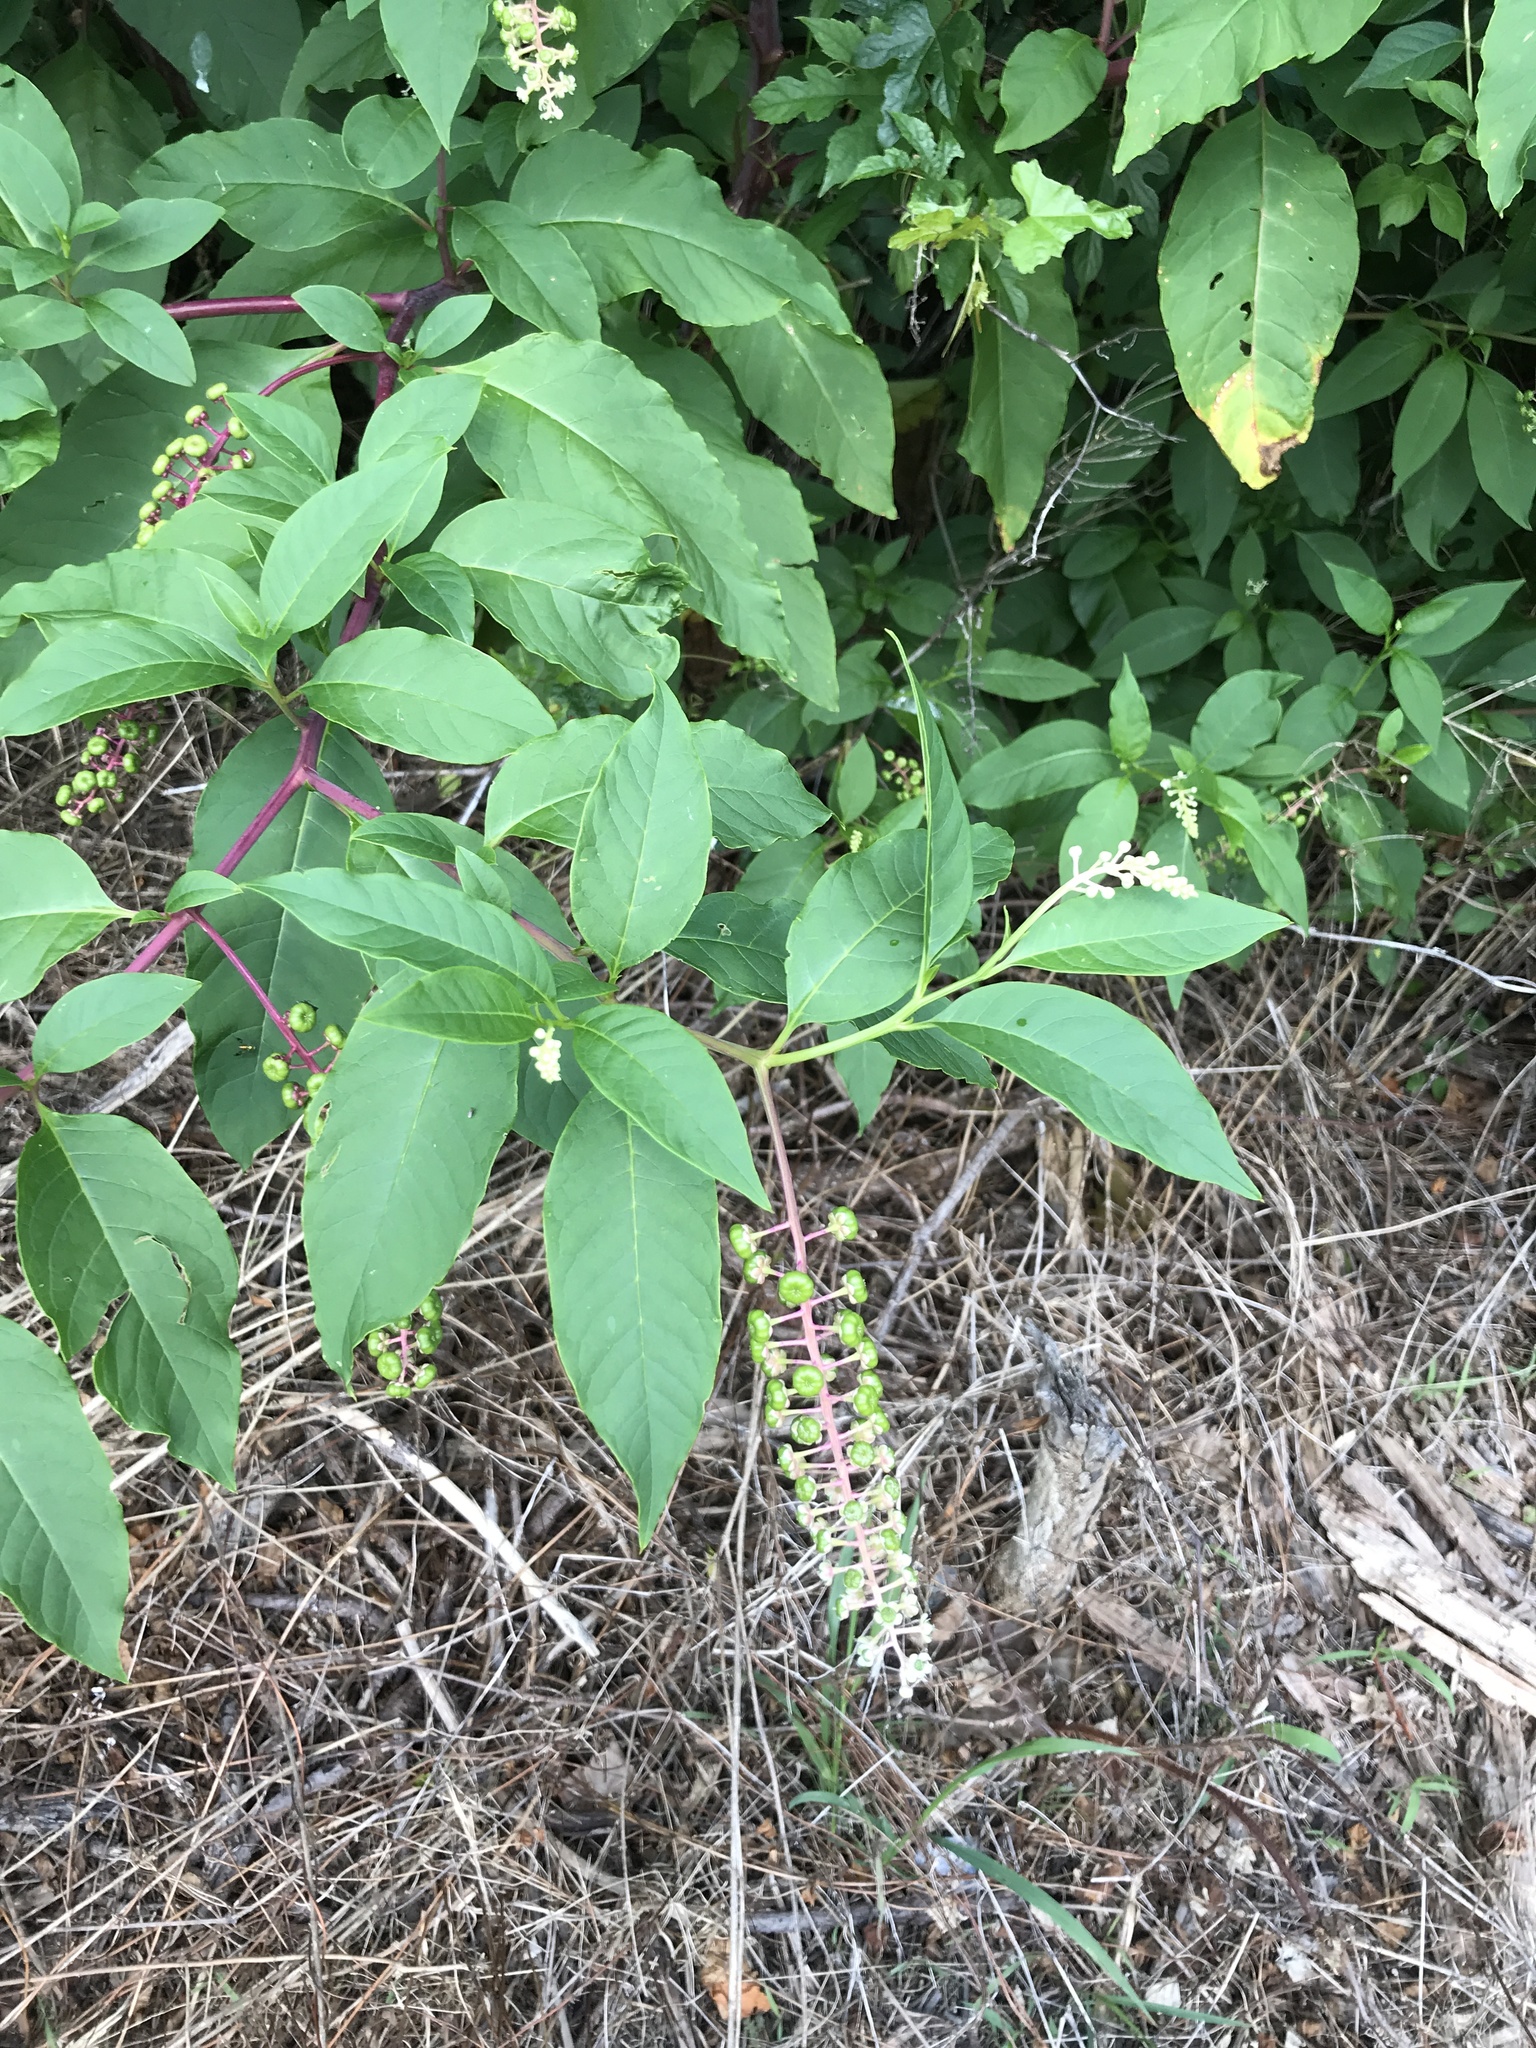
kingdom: Plantae
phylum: Tracheophyta
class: Magnoliopsida
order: Caryophyllales
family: Phytolaccaceae
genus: Phytolacca
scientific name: Phytolacca americana
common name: American pokeweed
